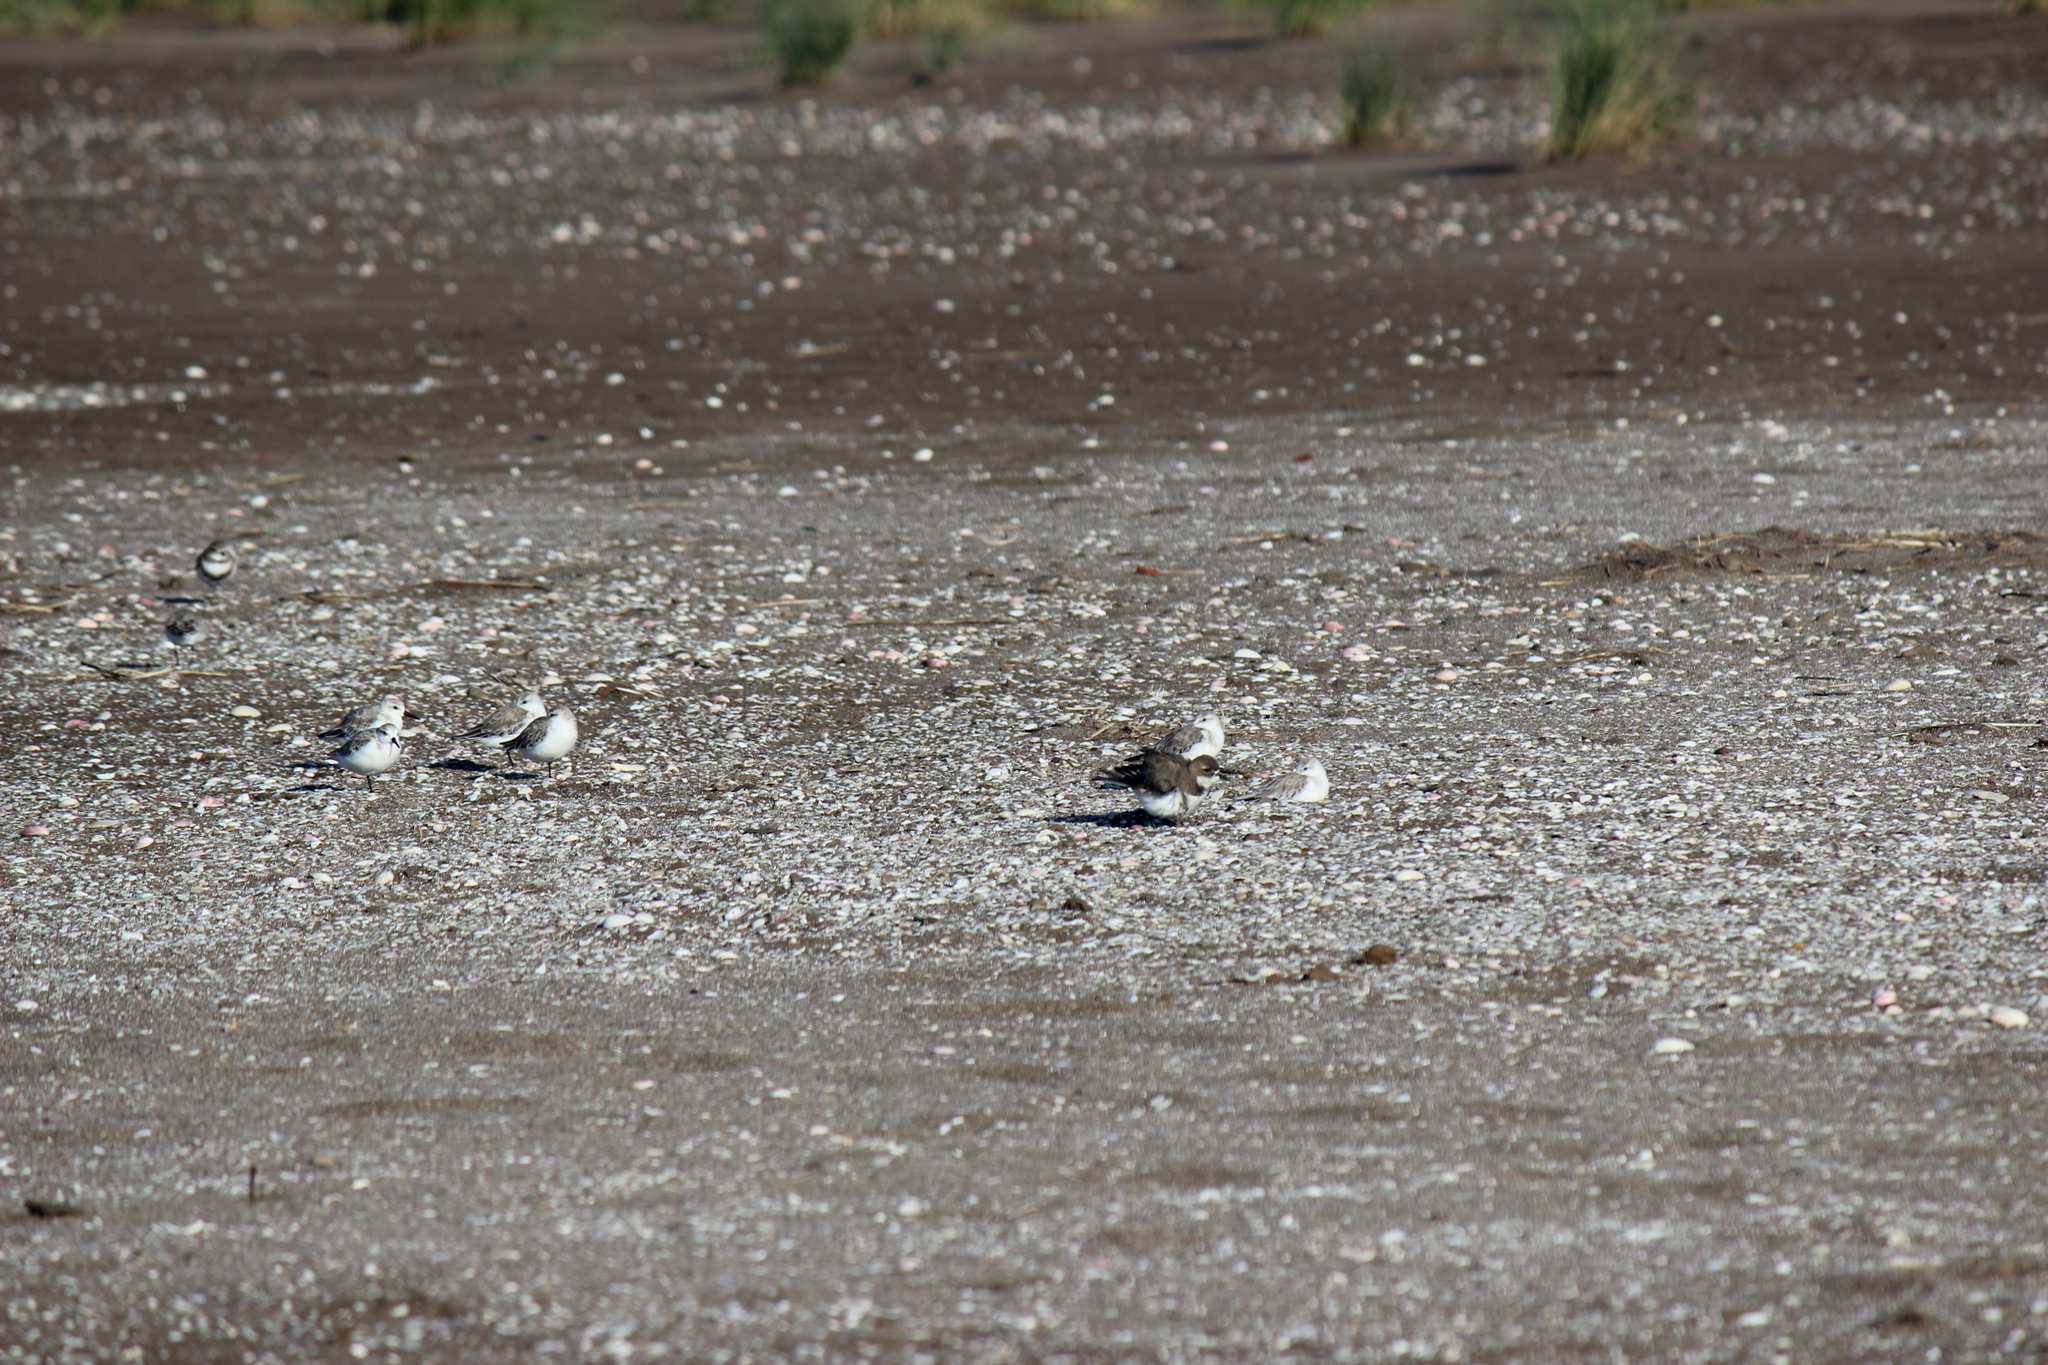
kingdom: Animalia
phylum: Chordata
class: Aves
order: Charadriiformes
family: Scolopacidae
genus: Calidris
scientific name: Calidris alba
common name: Sanderling
